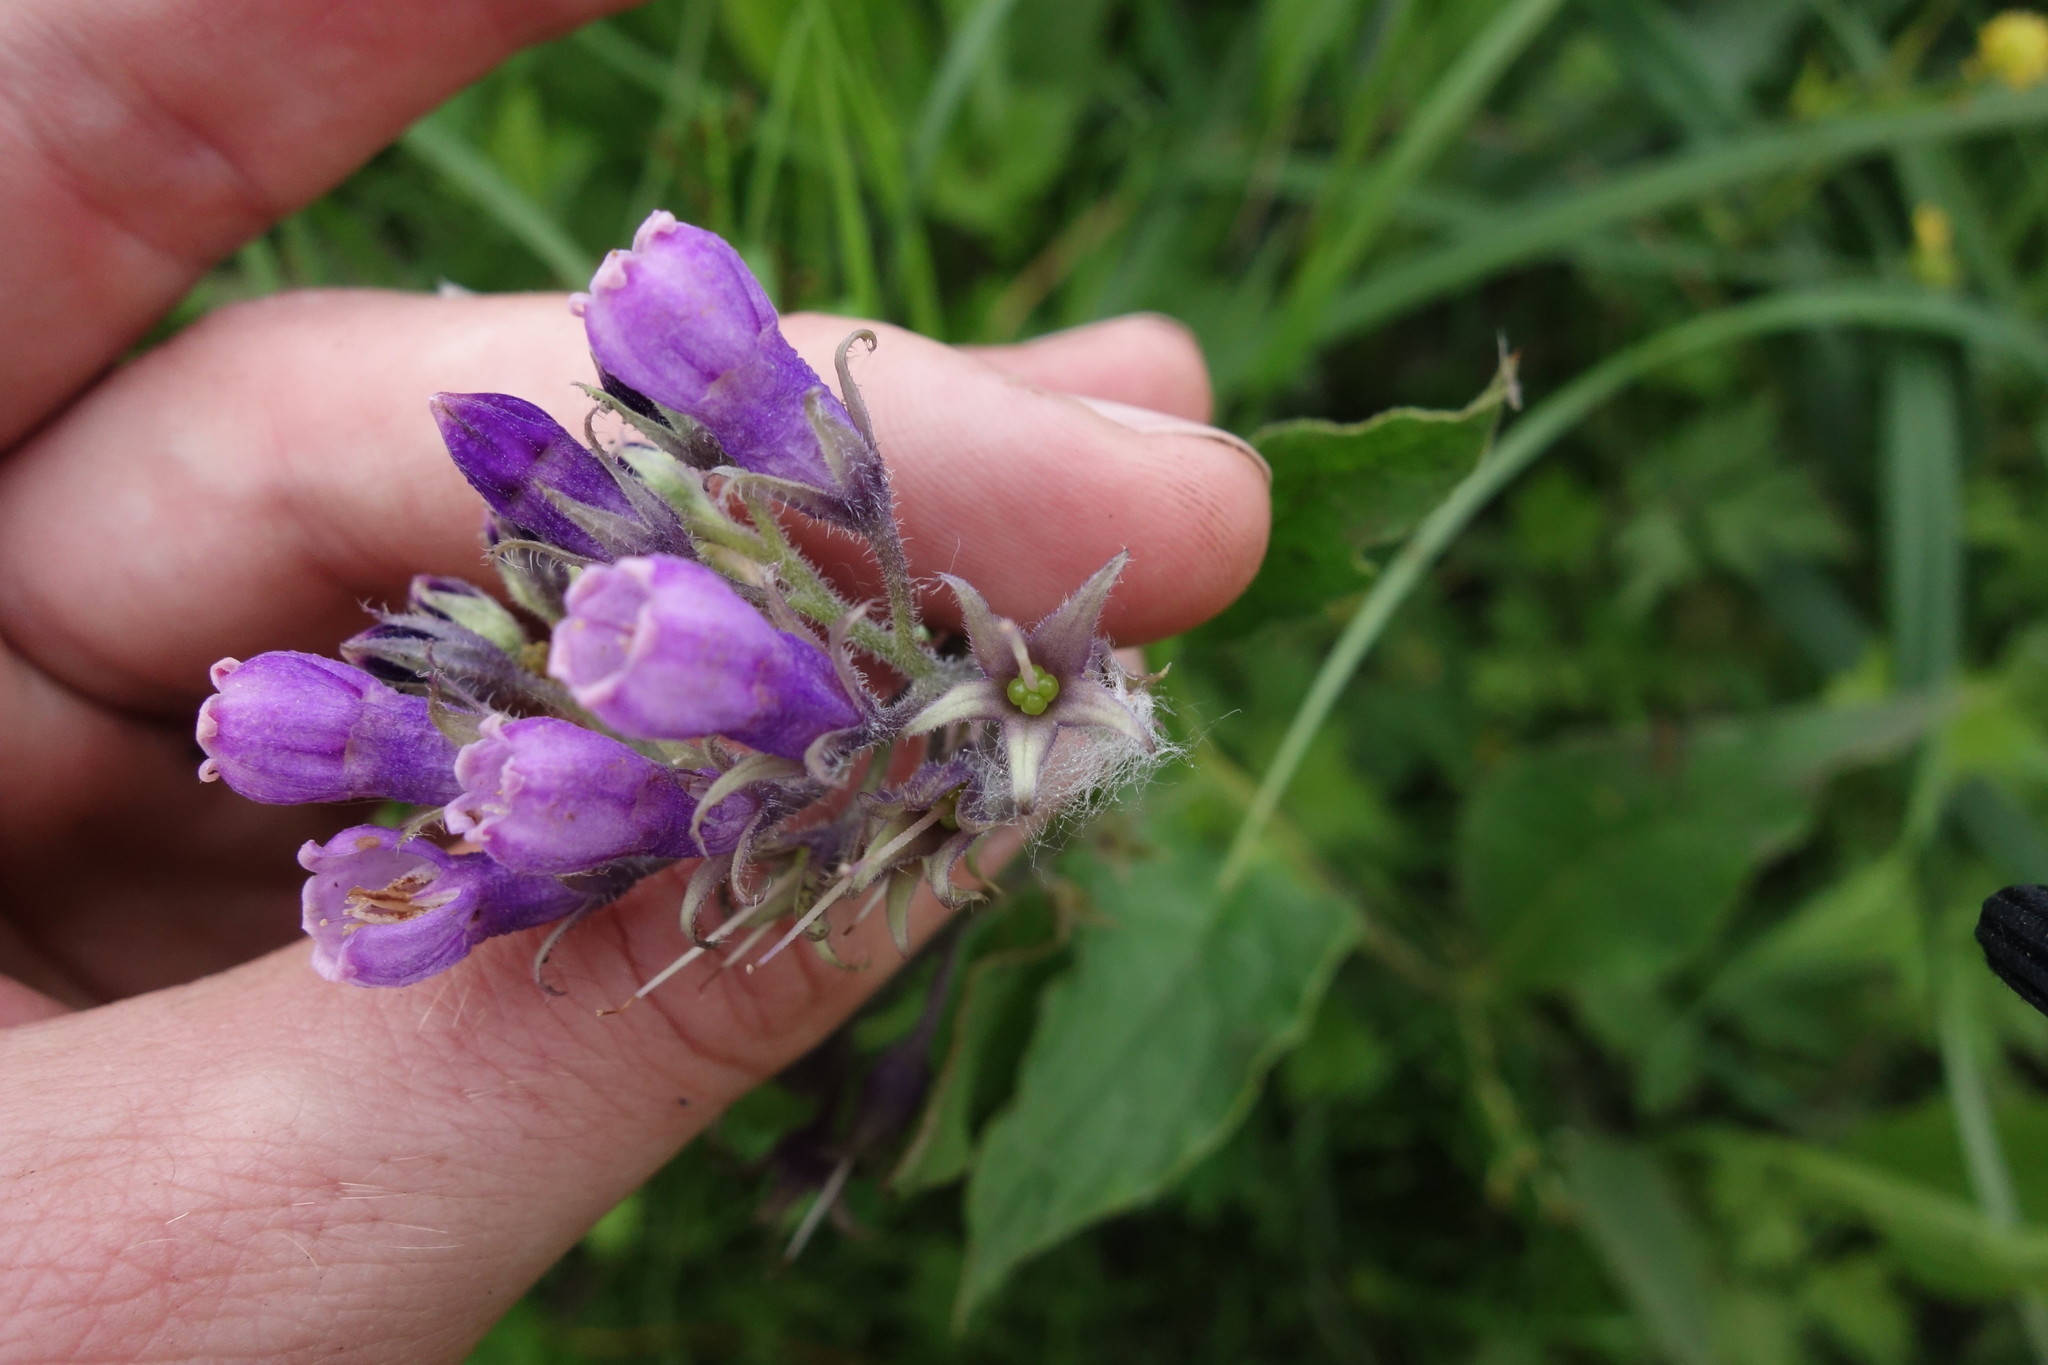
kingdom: Plantae
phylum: Tracheophyta
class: Magnoliopsida
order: Boraginales
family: Boraginaceae
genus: Symphytum
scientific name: Symphytum officinale
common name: Common comfrey
